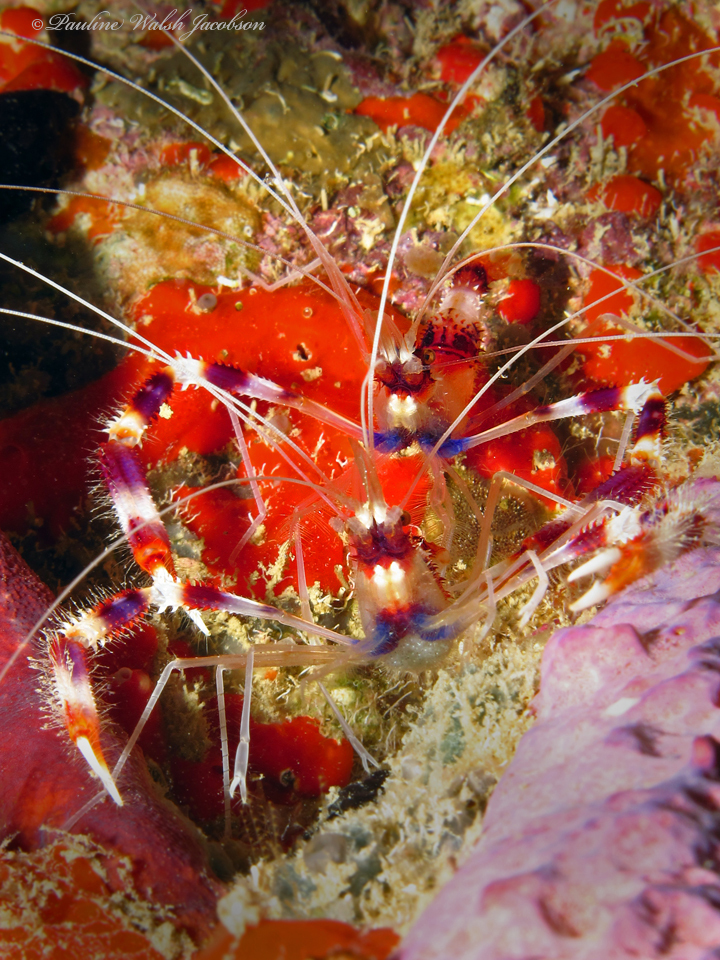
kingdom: Animalia
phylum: Arthropoda
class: Malacostraca
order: Decapoda
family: Stenopodidae
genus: Stenopus
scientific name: Stenopus hispidus
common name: Banded coral shrimp
